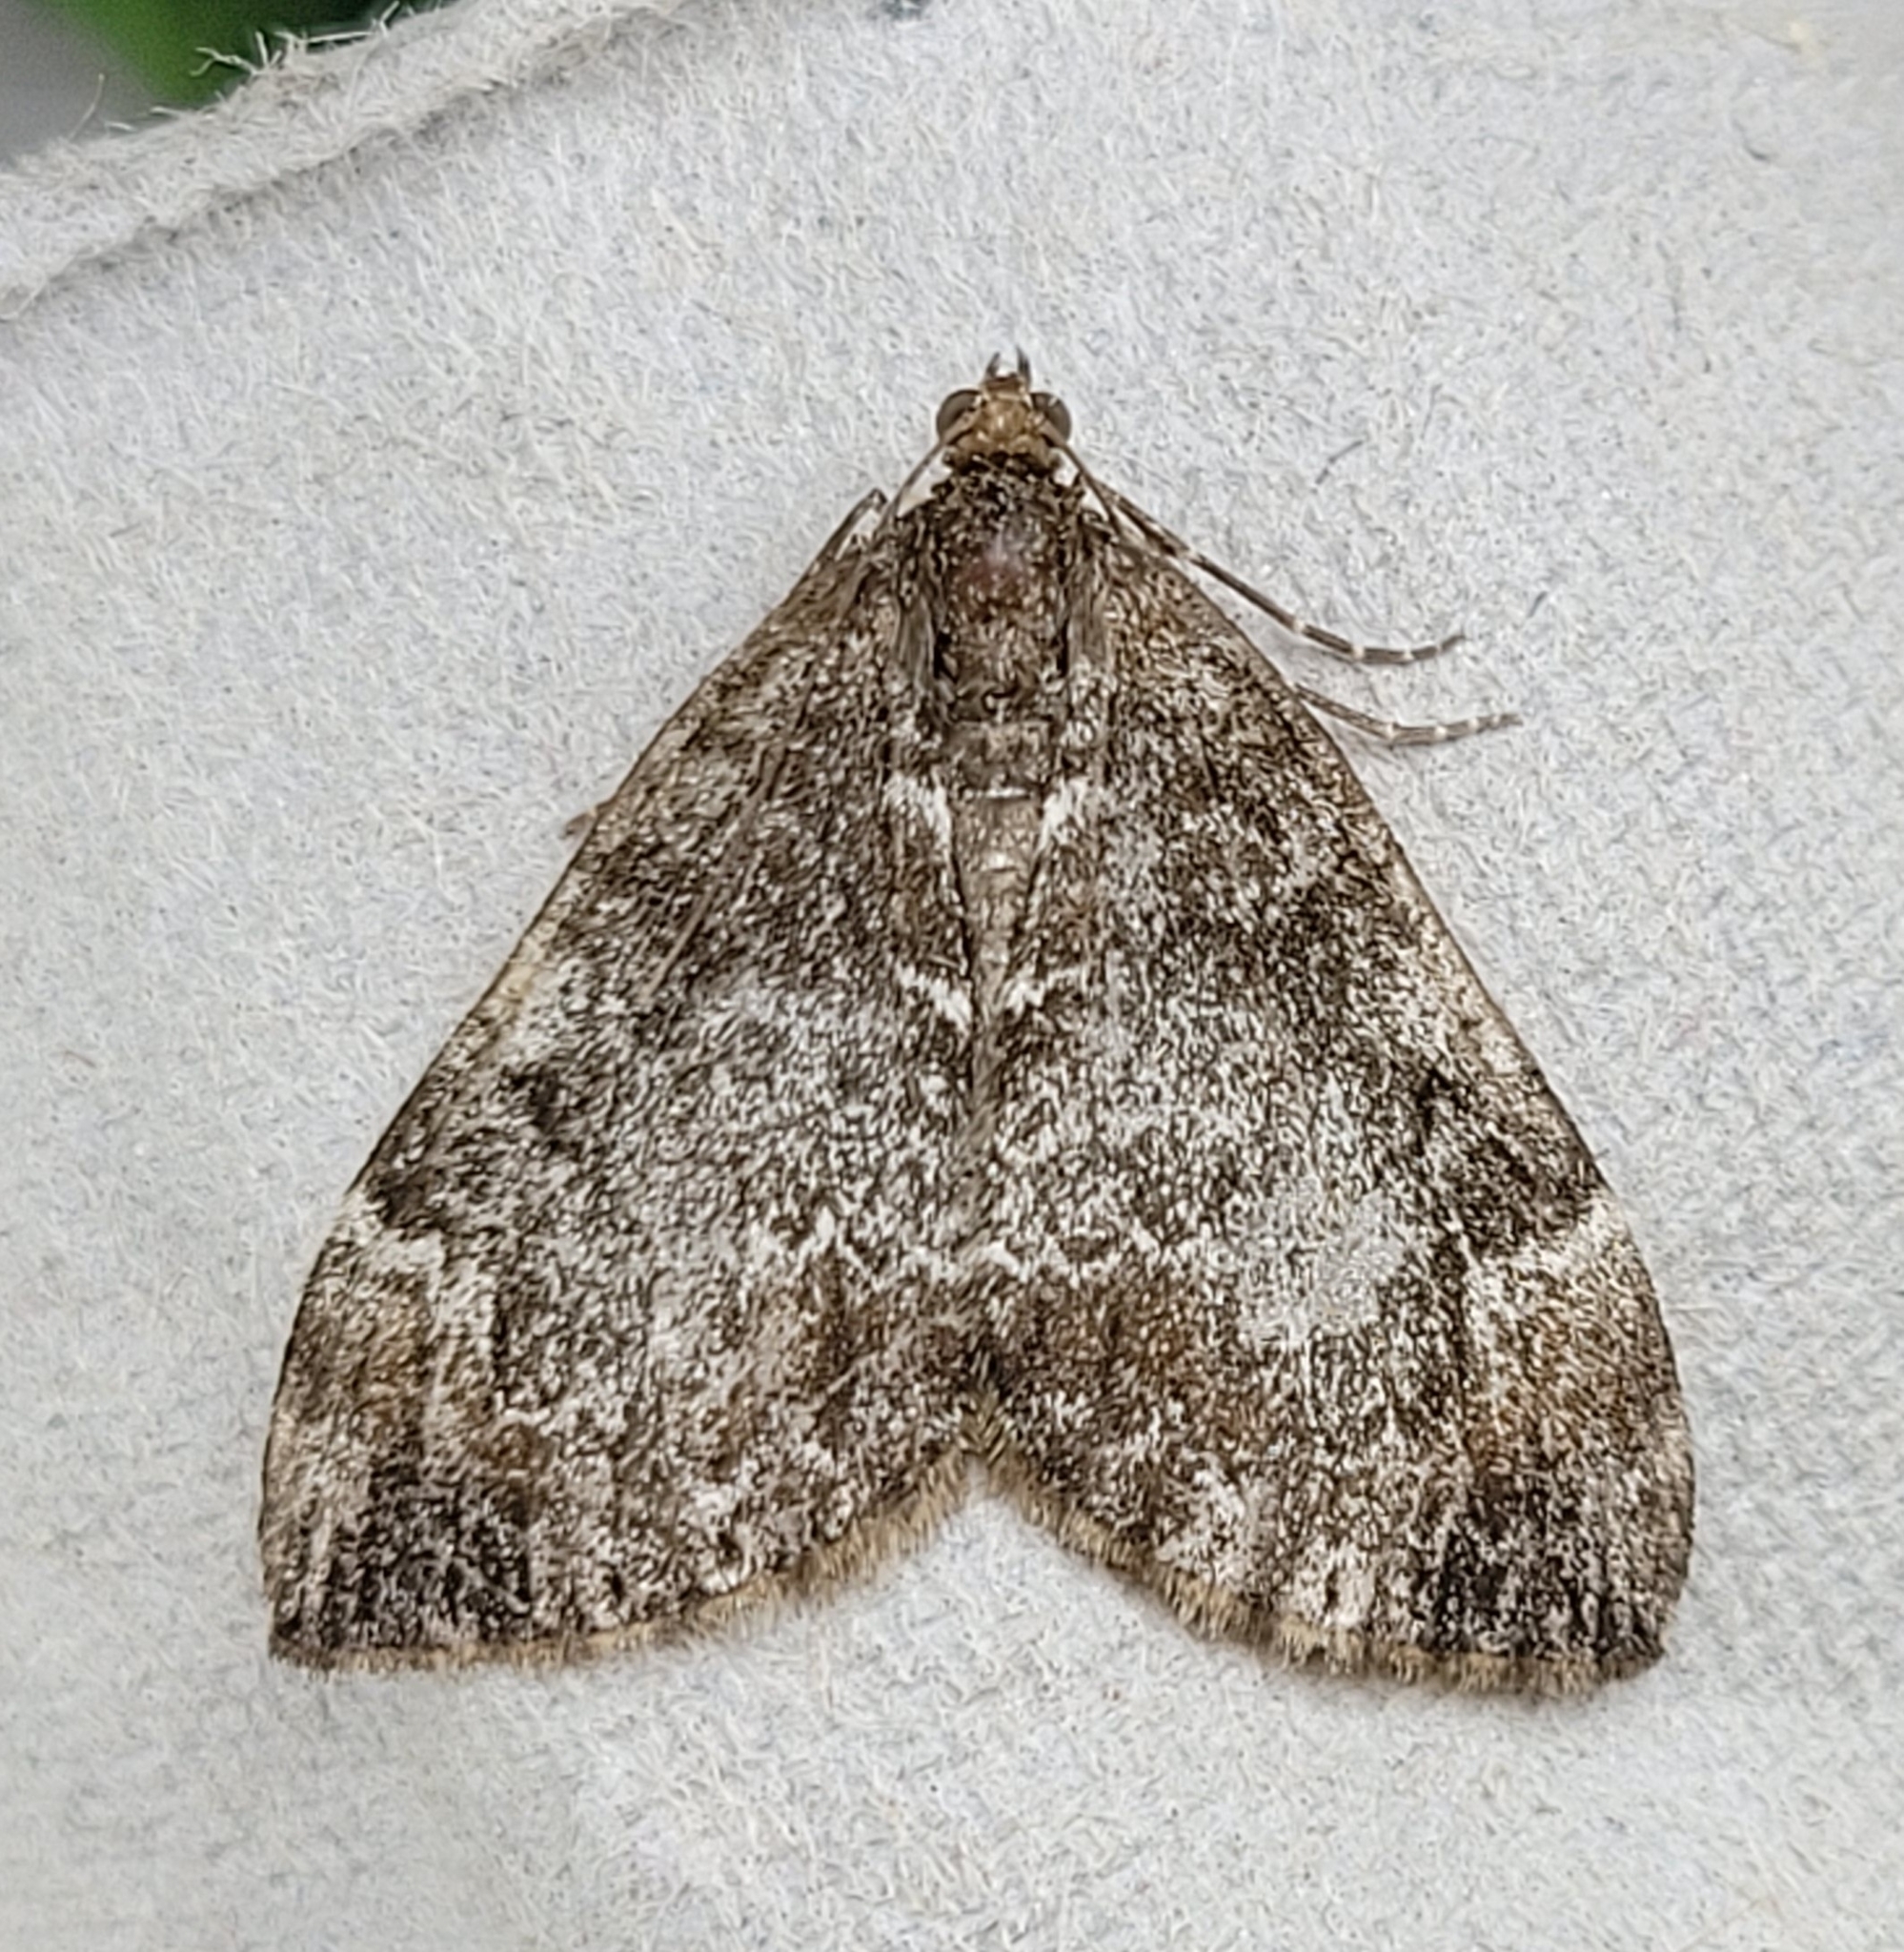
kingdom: Animalia
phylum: Arthropoda
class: Insecta
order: Lepidoptera
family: Geometridae
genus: Dysstroma
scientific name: Dysstroma truncata
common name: Common marbled carpet
